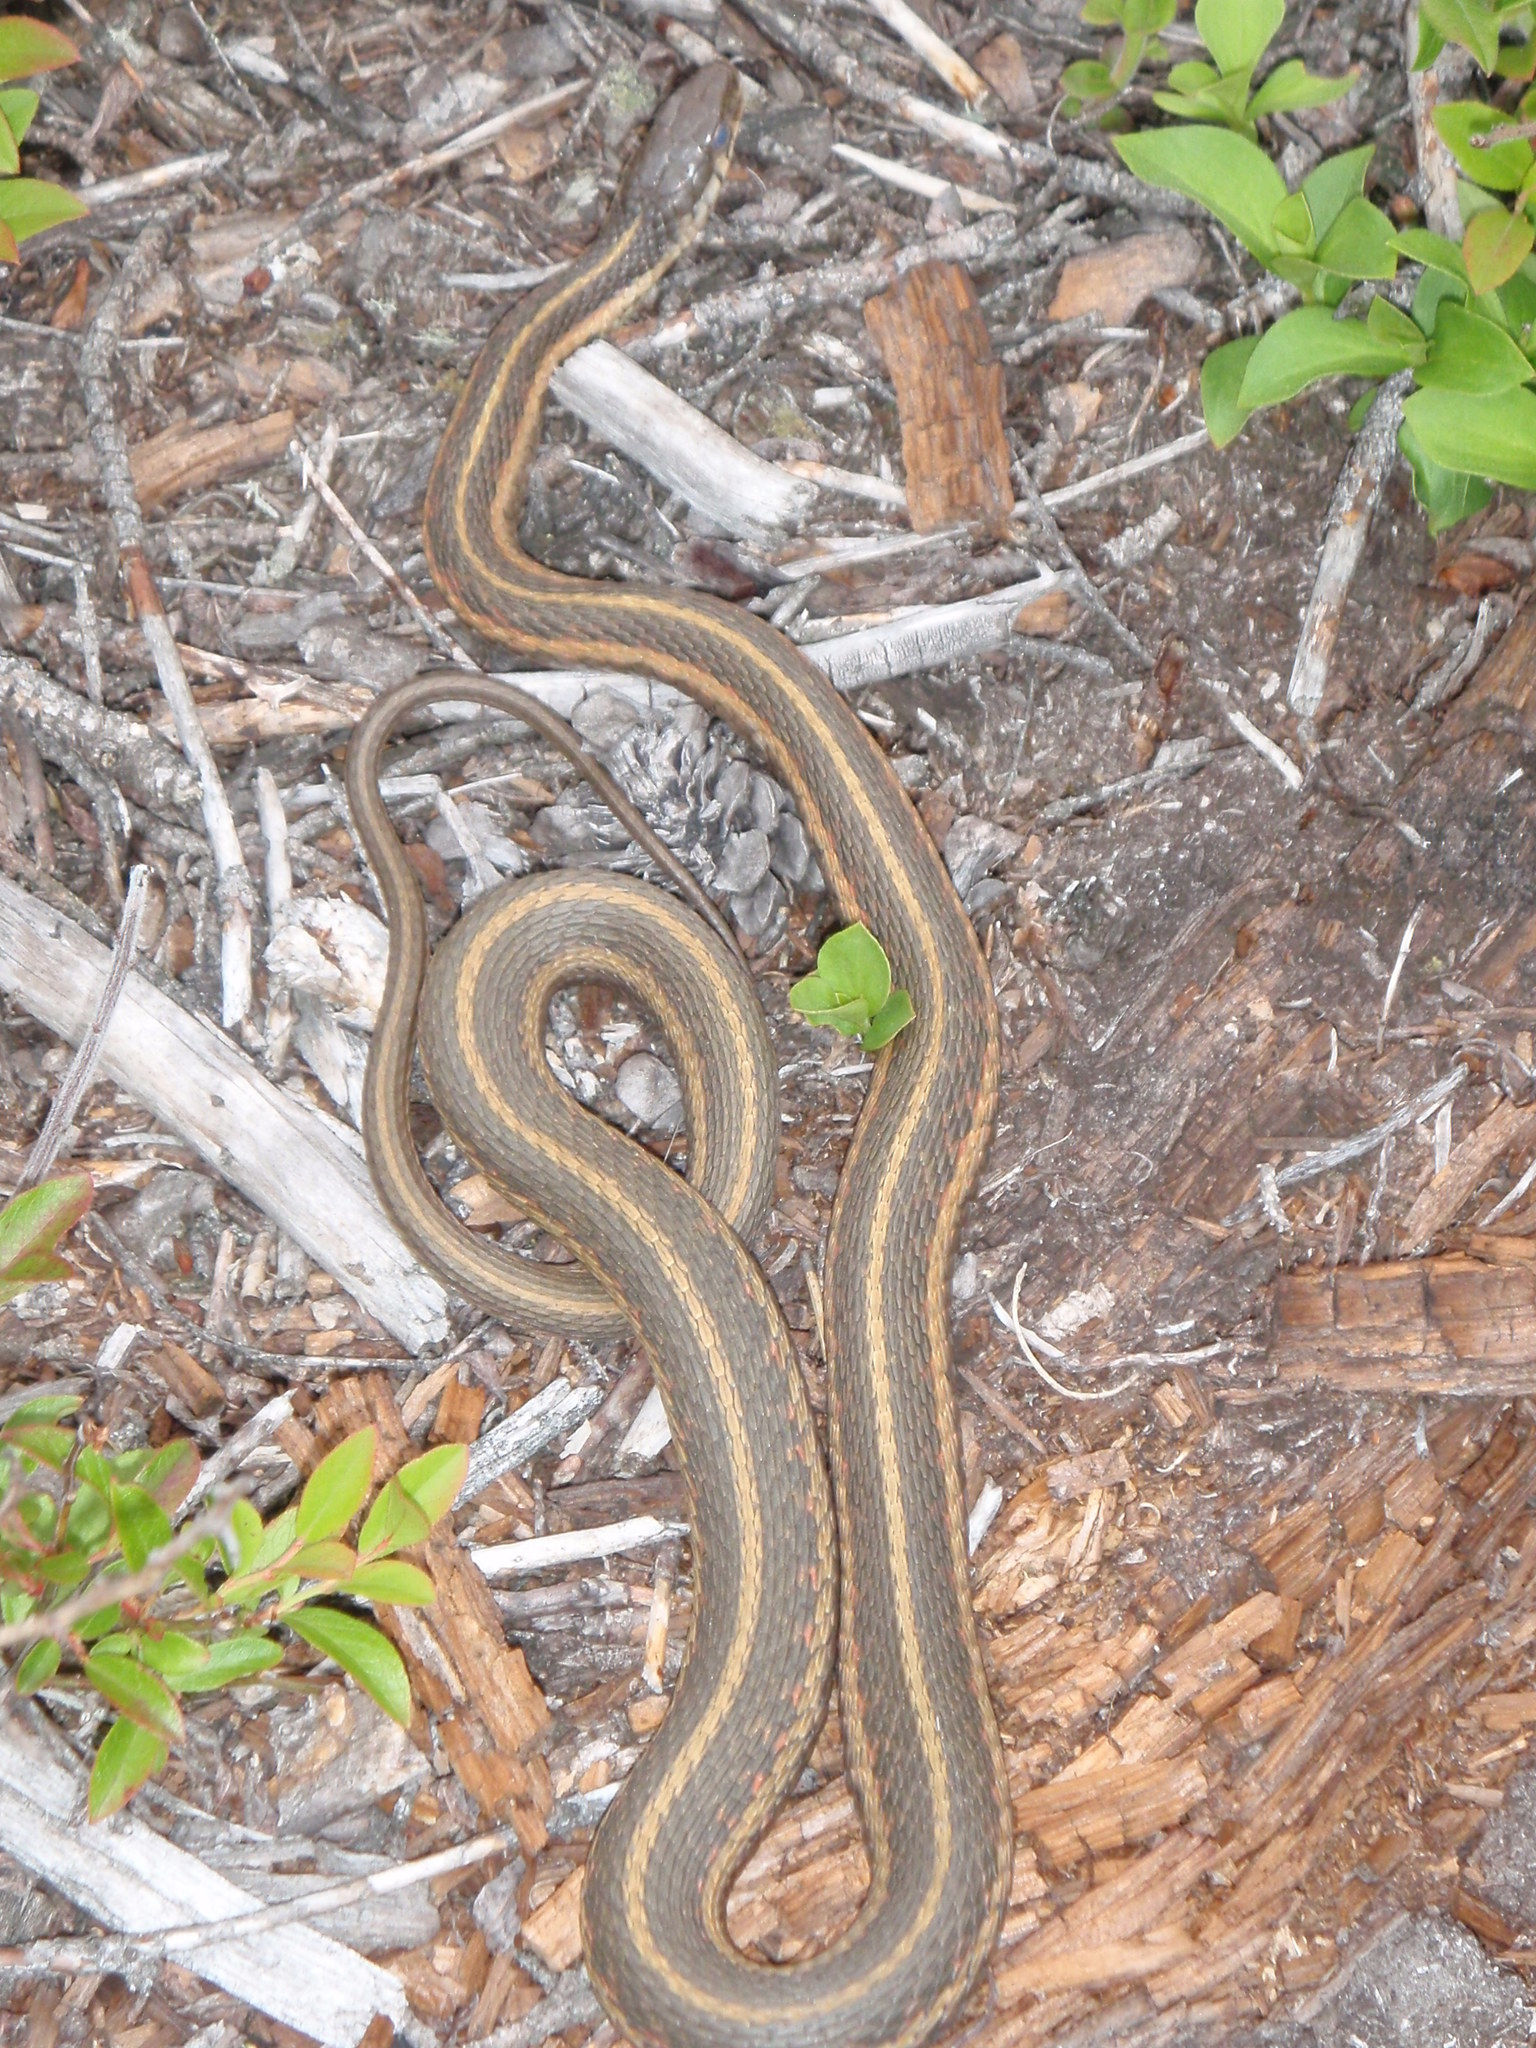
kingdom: Animalia
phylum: Chordata
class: Squamata
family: Colubridae
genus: Thamnophis
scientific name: Thamnophis sirtalis
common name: Common garter snake
